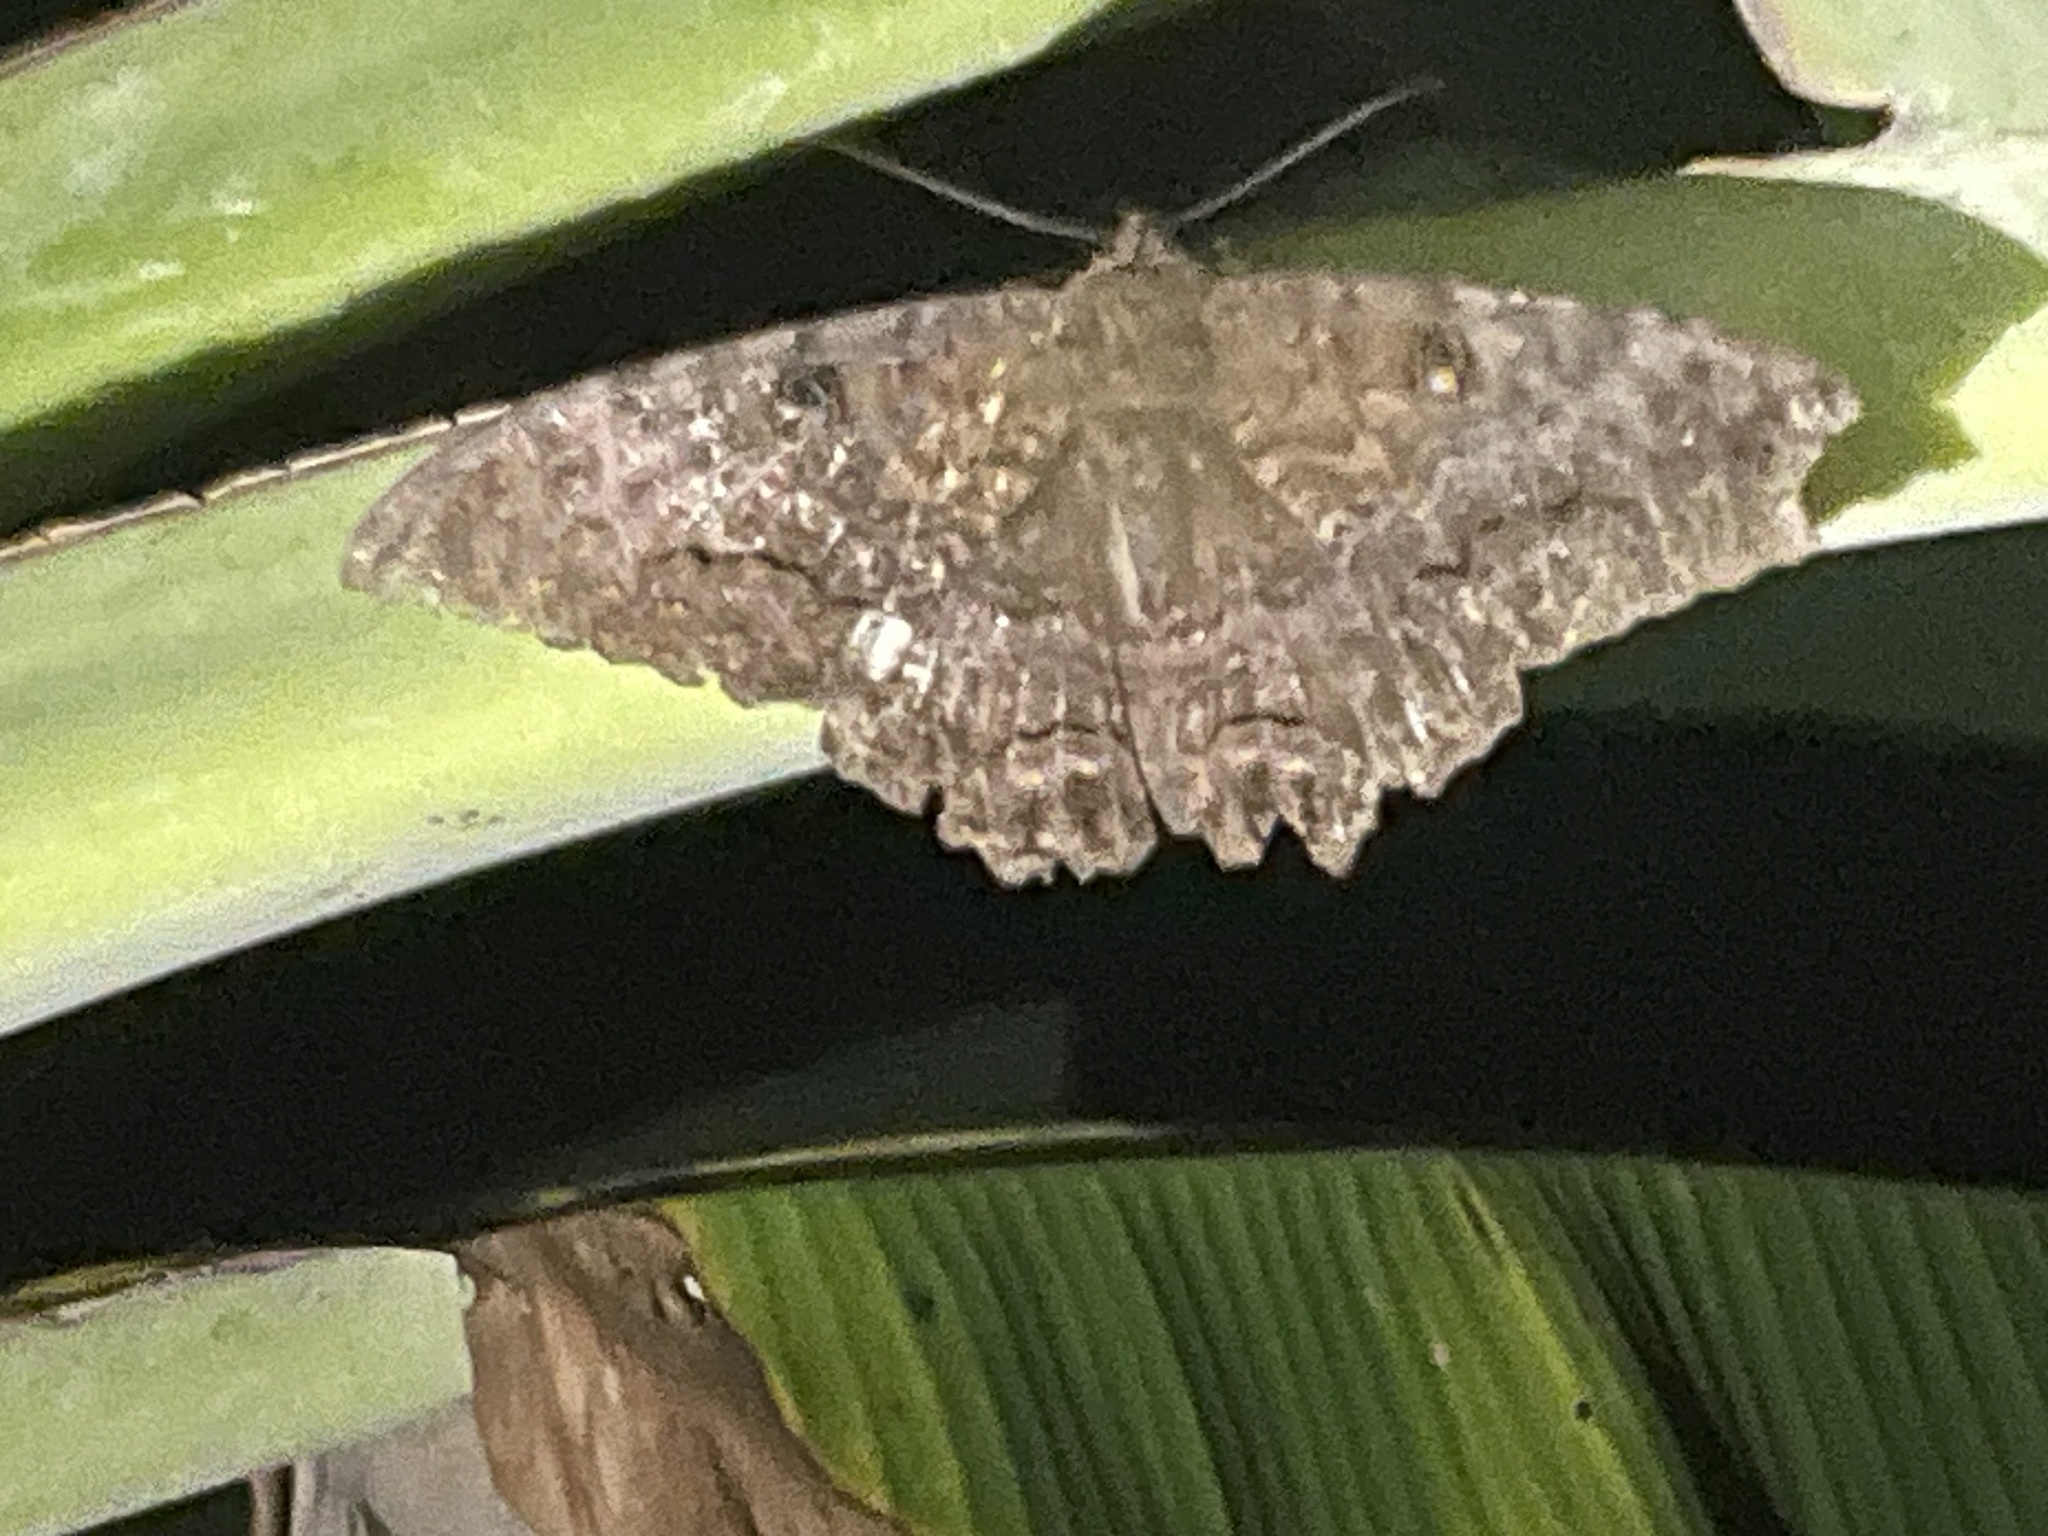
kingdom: Animalia
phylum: Arthropoda
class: Insecta
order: Lepidoptera
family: Erebidae
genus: Ascalapha
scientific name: Ascalapha odorata
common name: Black witch
